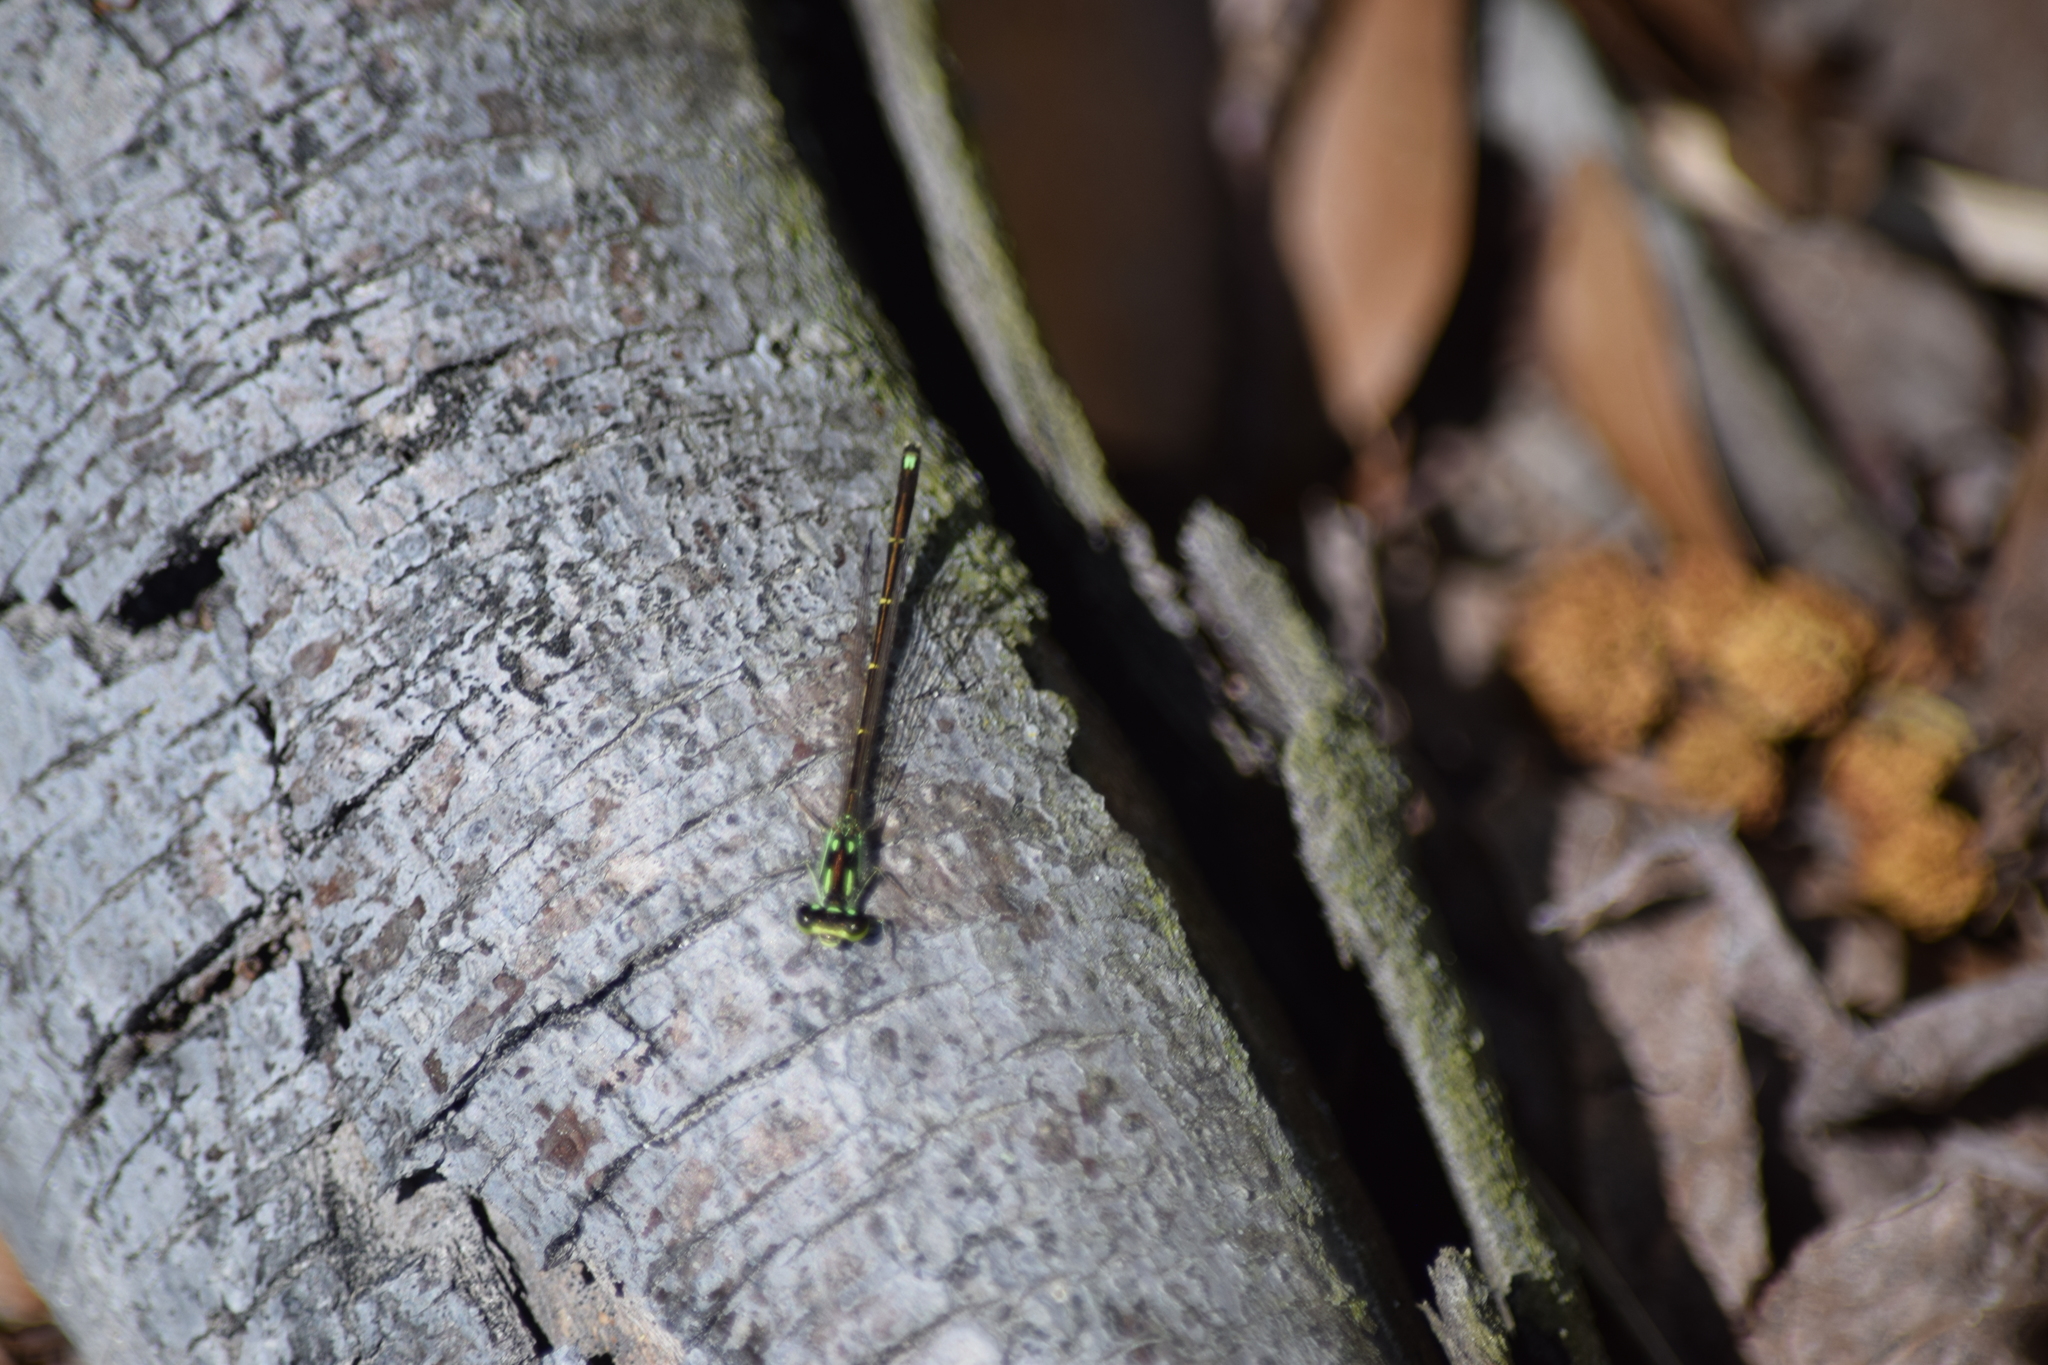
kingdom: Animalia
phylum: Arthropoda
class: Insecta
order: Odonata
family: Coenagrionidae
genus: Ischnura
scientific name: Ischnura posita
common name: Fragile forktail
